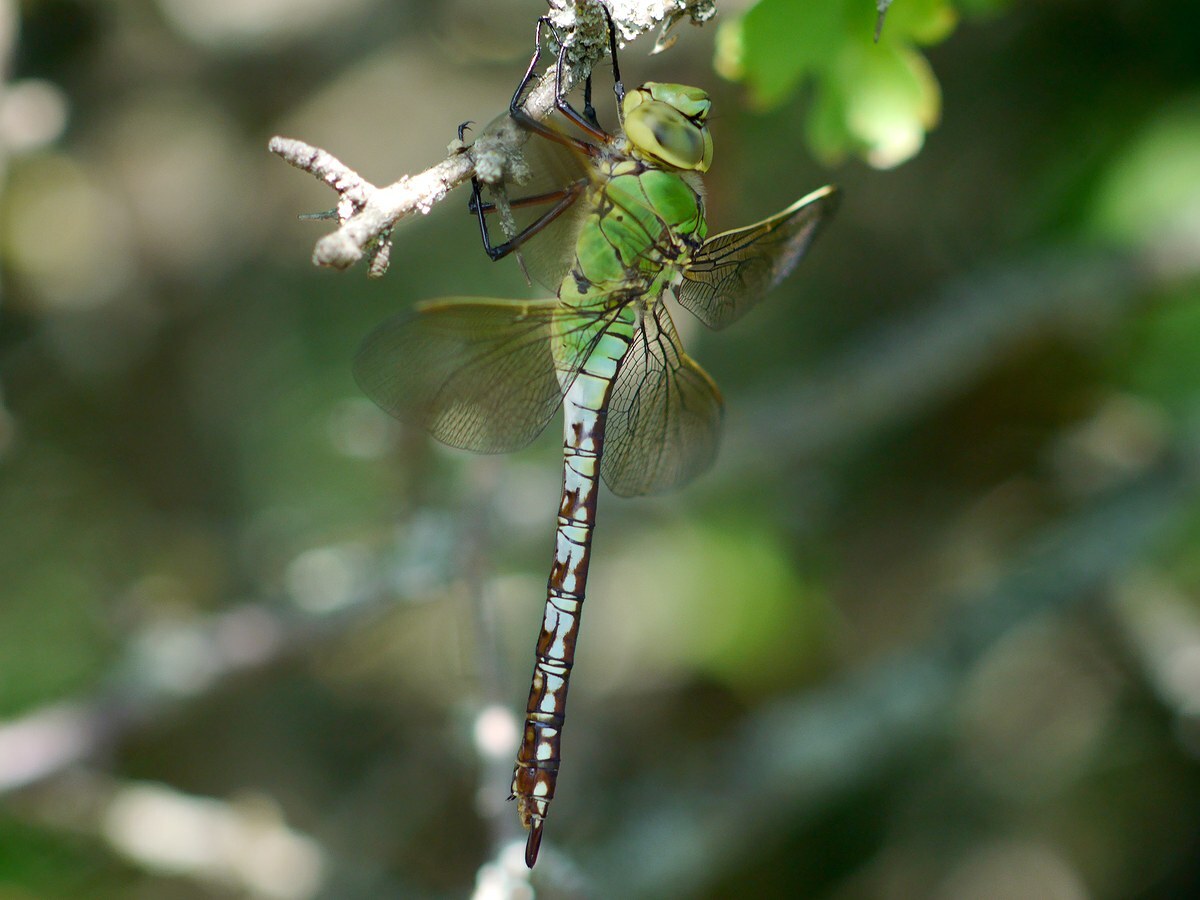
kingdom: Animalia
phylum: Arthropoda
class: Insecta
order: Odonata
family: Aeshnidae
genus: Anax
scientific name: Anax imperator
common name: Emperor dragonfly
